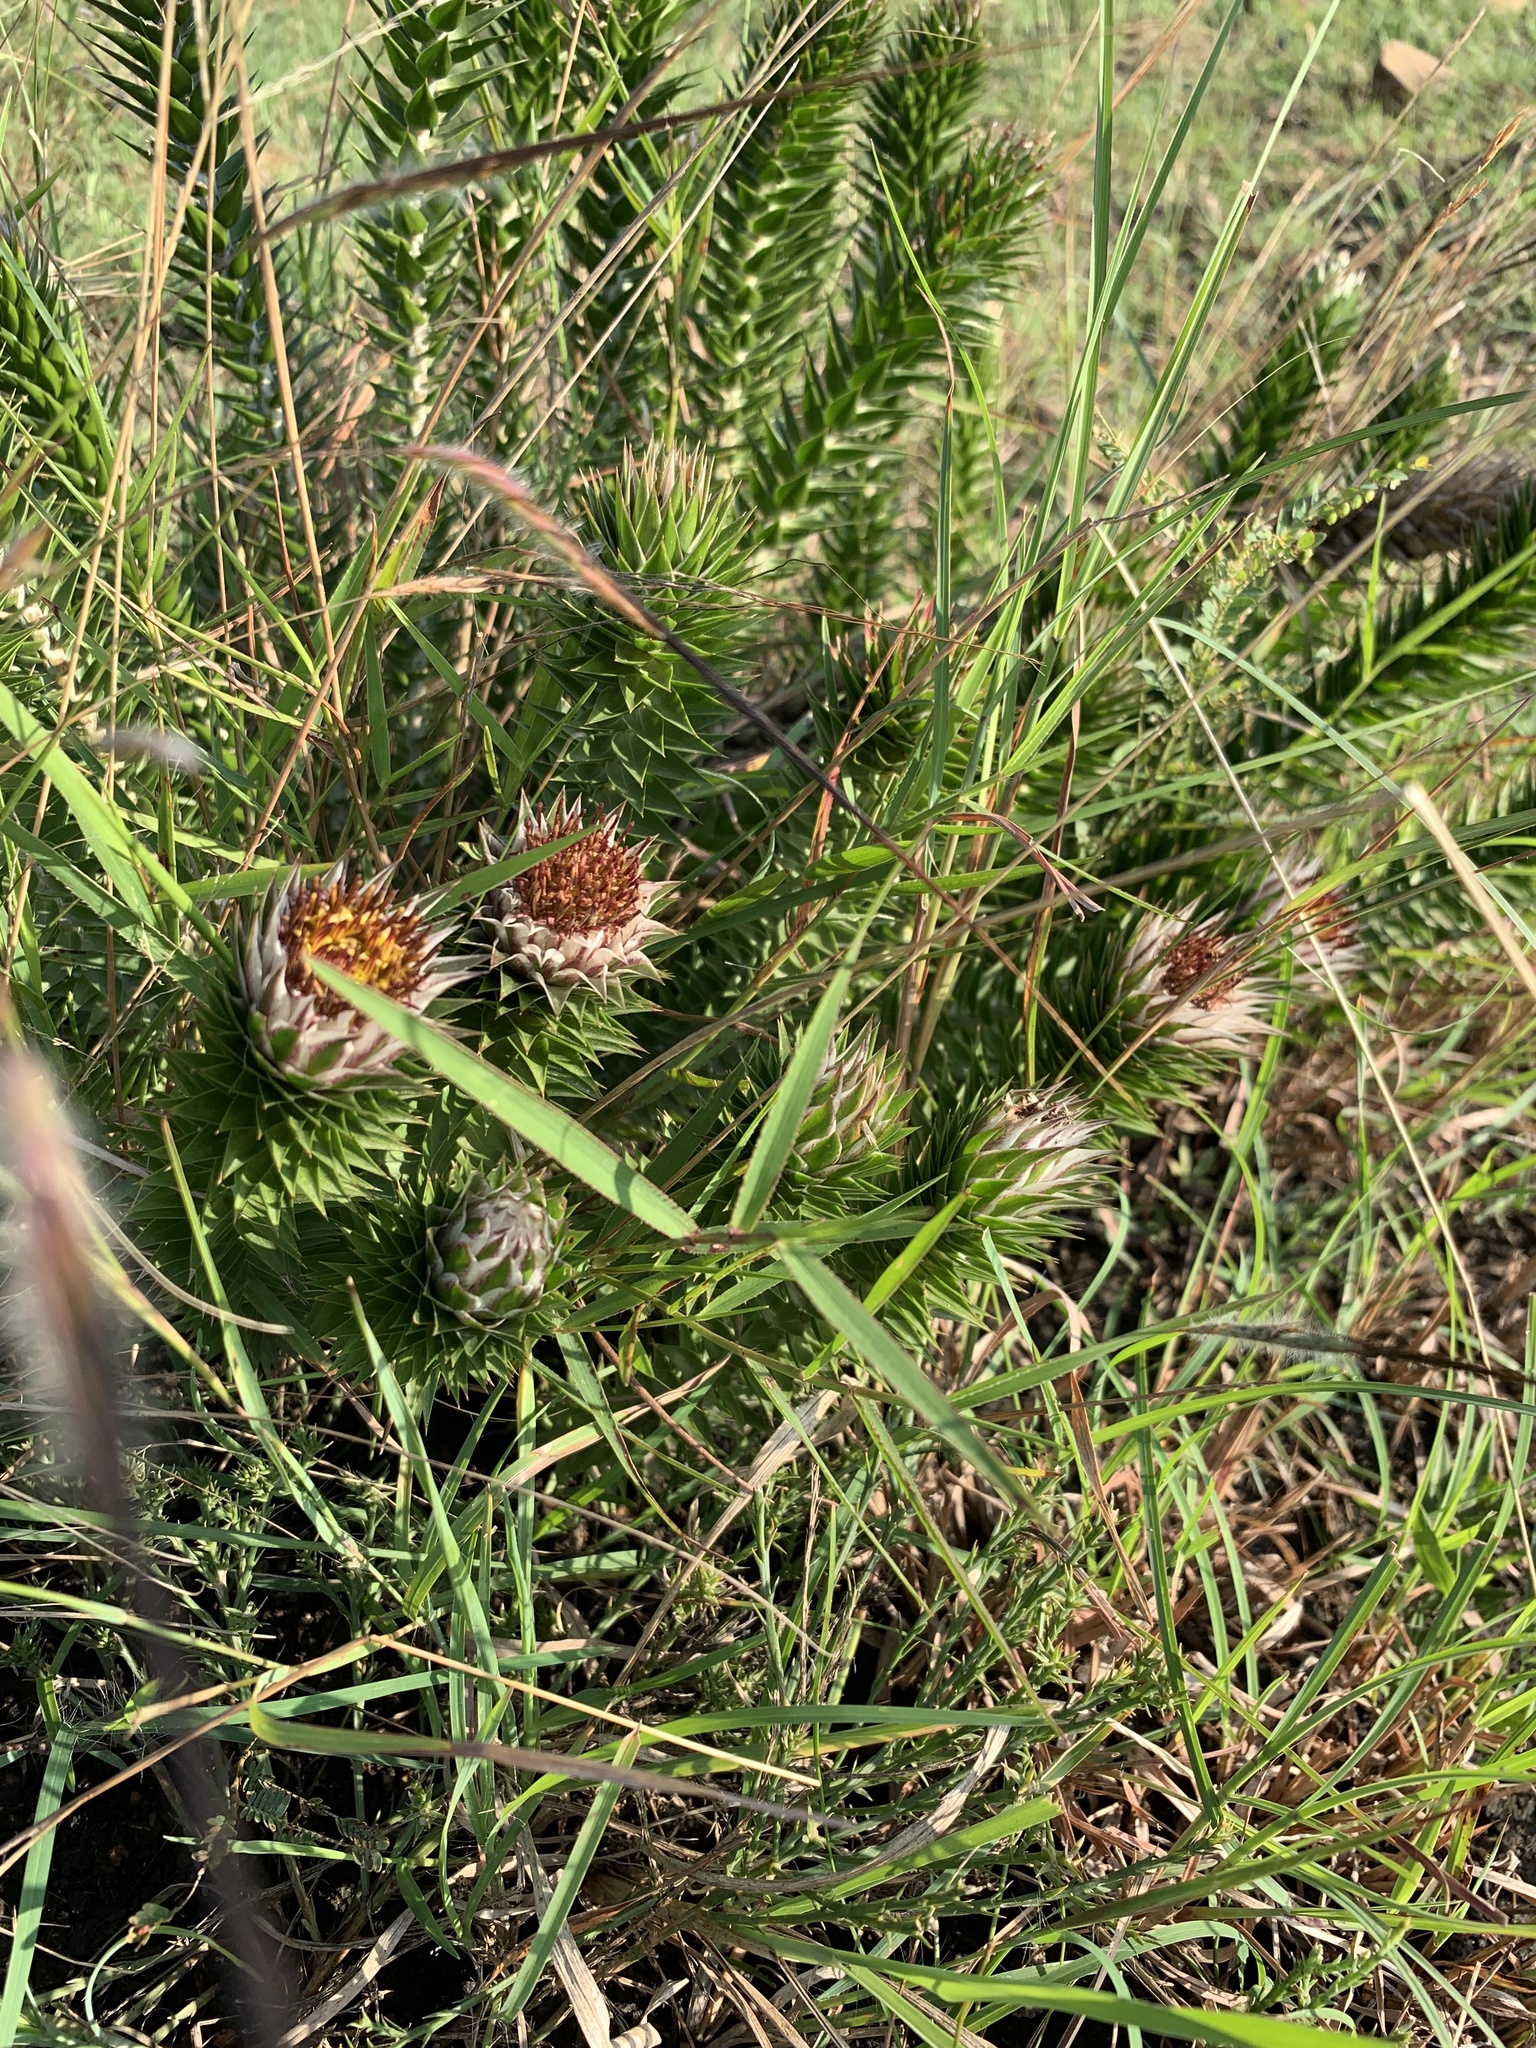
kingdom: Plantae
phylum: Tracheophyta
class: Magnoliopsida
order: Asterales
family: Asteraceae
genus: Macledium
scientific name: Macledium zeyheri
